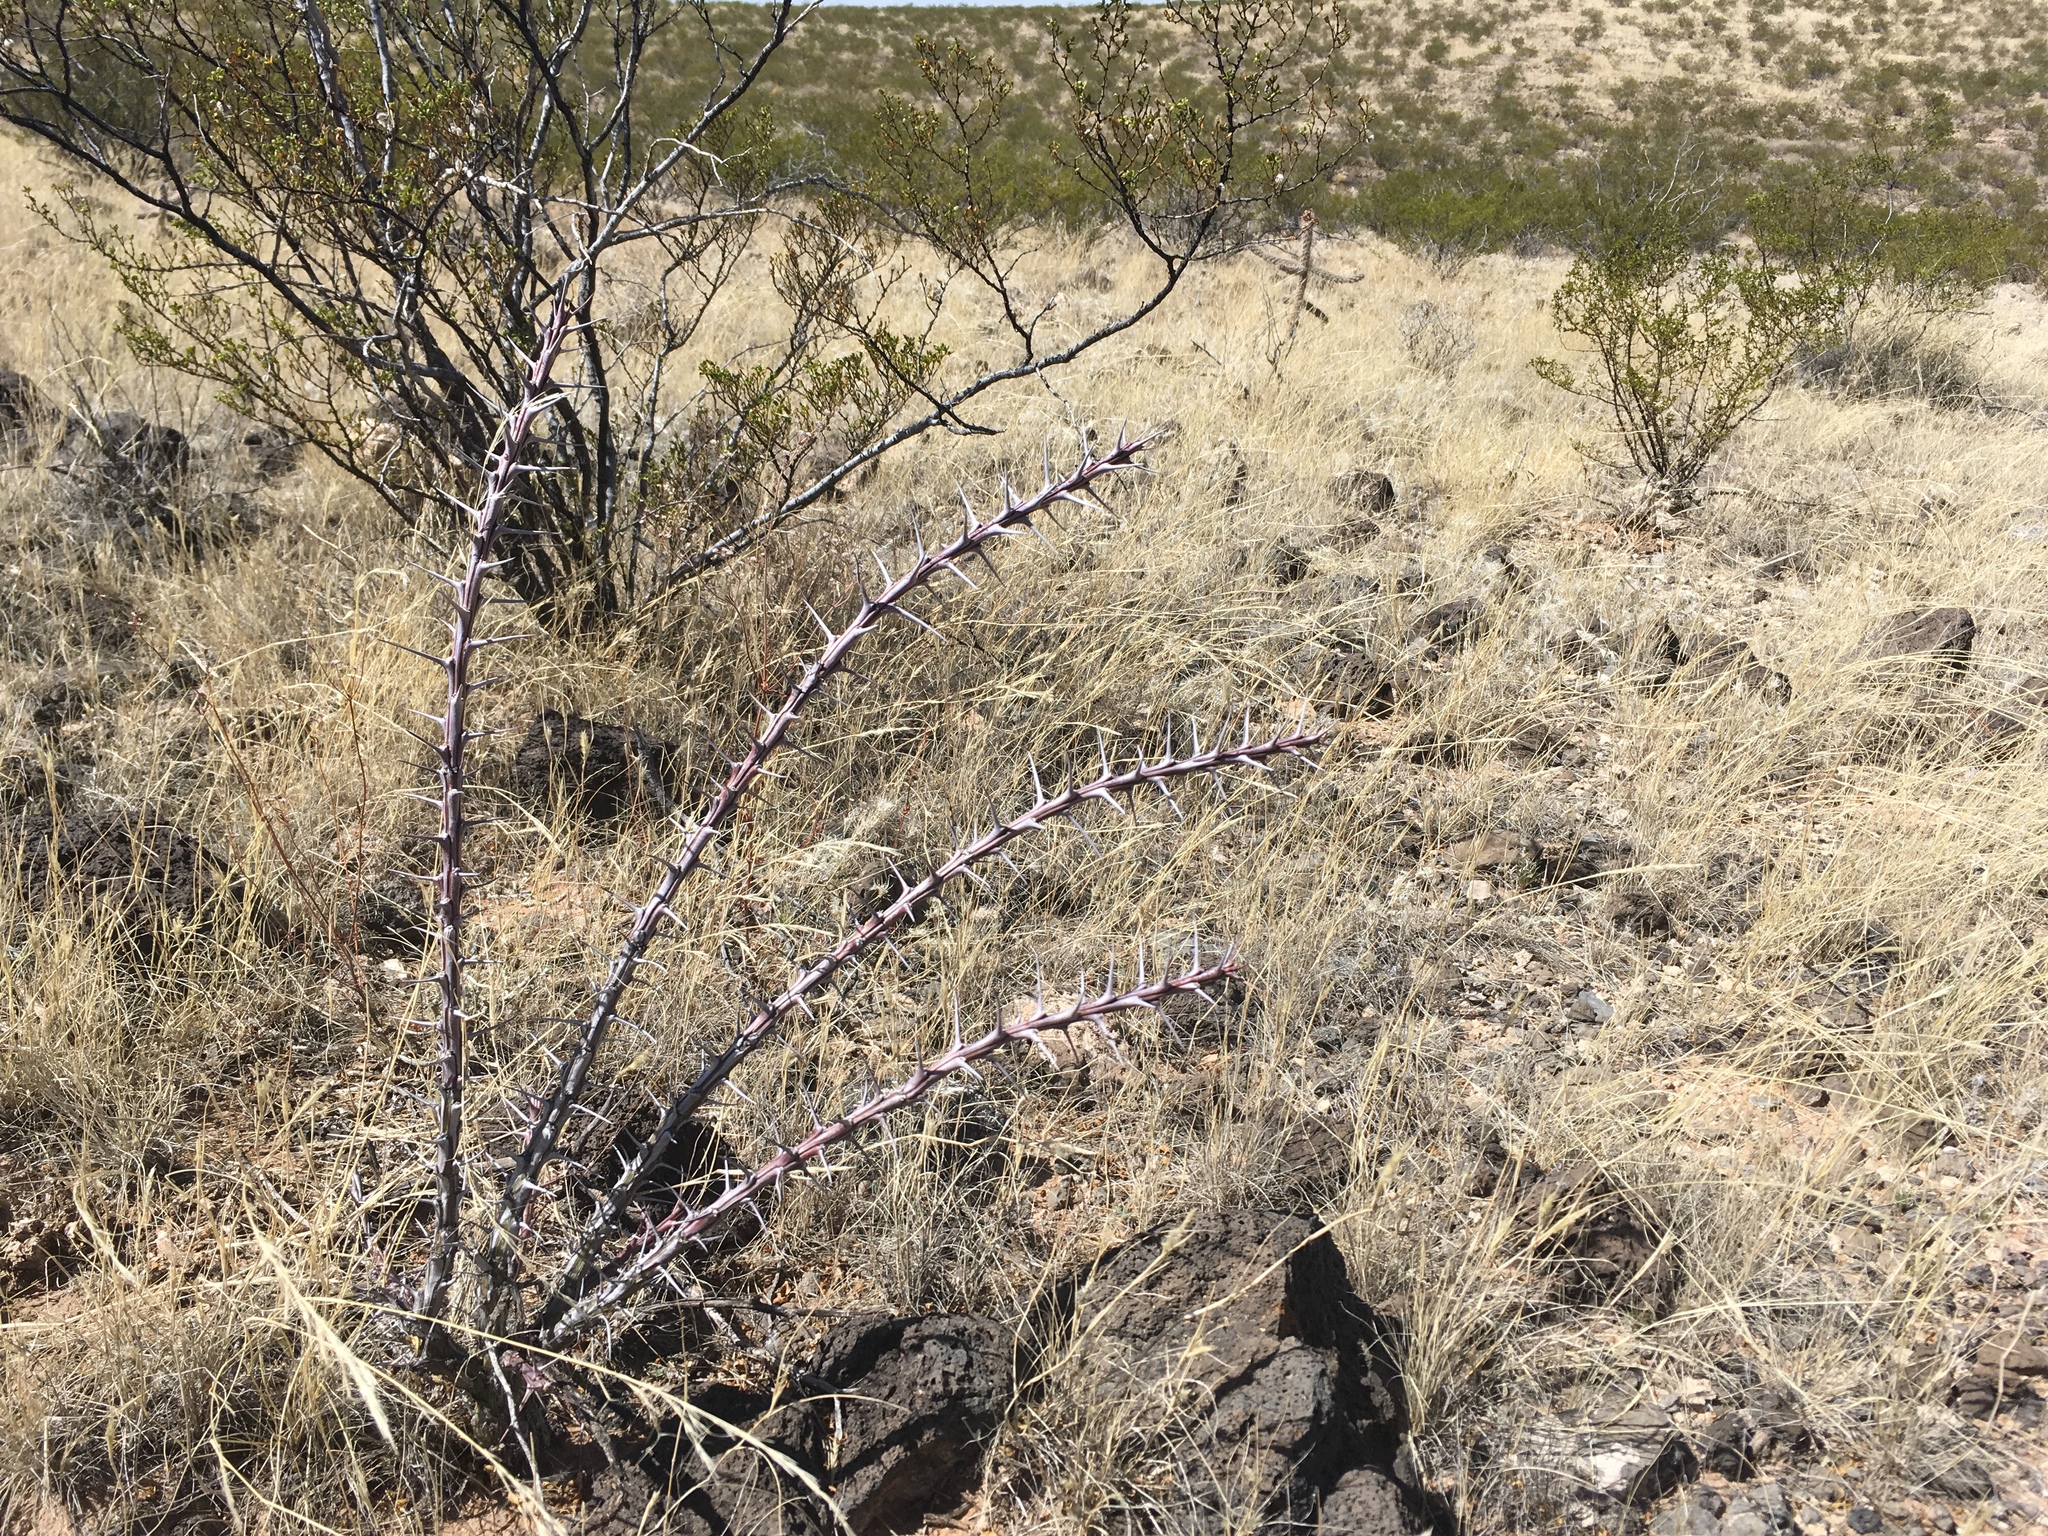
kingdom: Plantae
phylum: Tracheophyta
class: Magnoliopsida
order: Ericales
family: Fouquieriaceae
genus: Fouquieria
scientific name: Fouquieria splendens
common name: Vine-cactus
